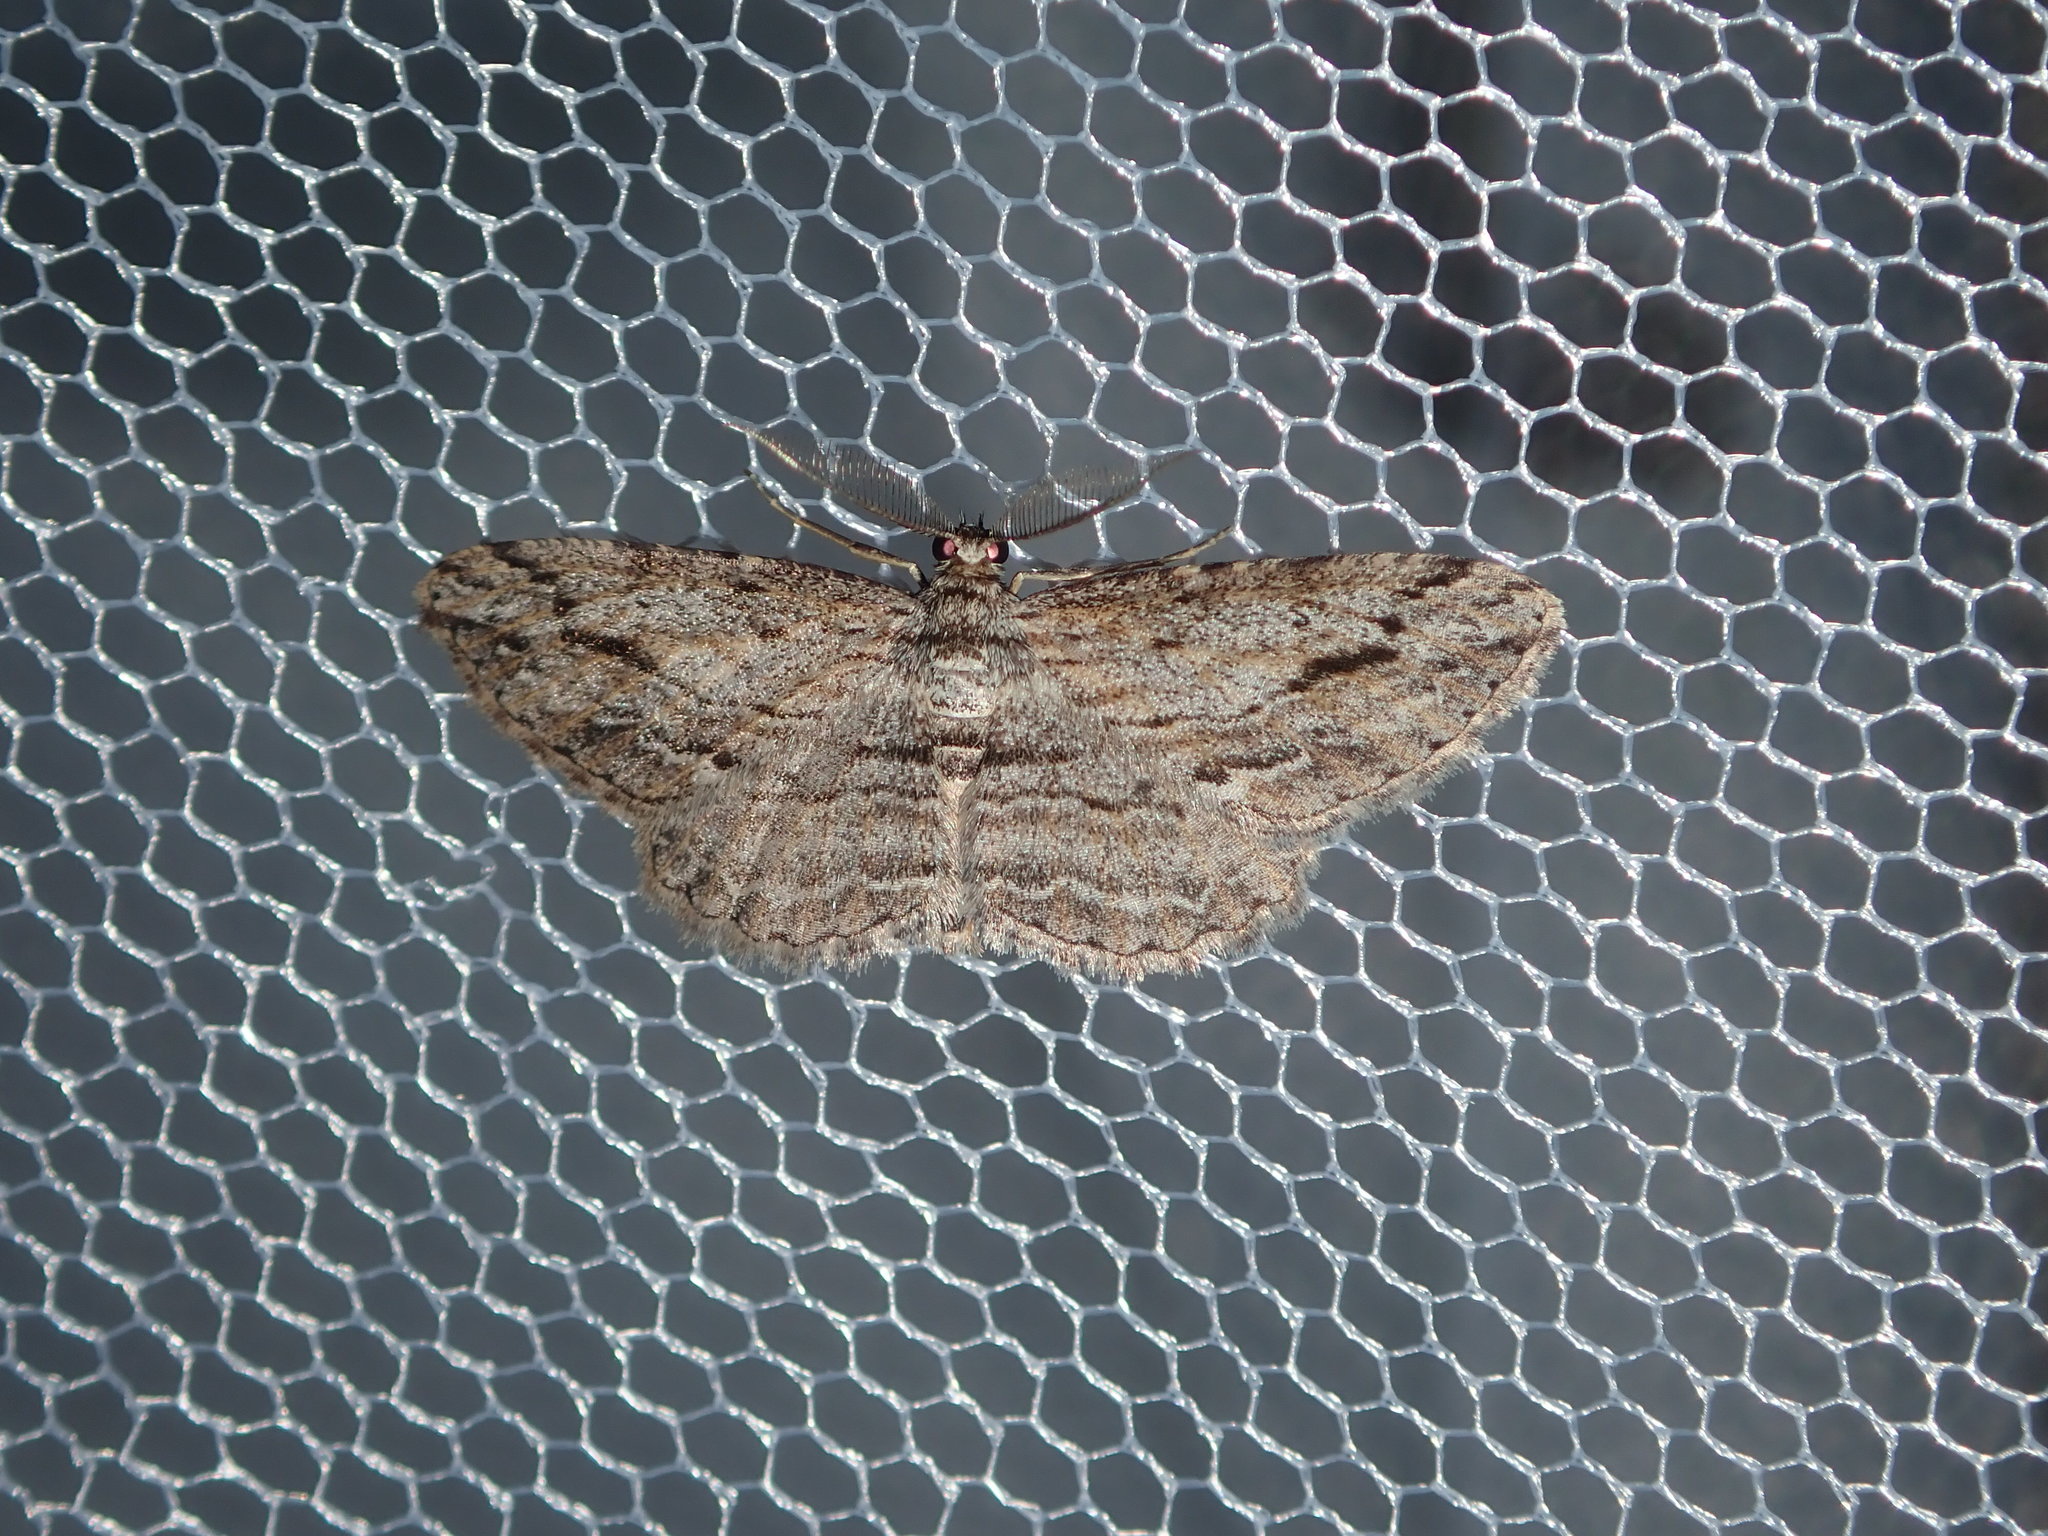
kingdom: Animalia
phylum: Arthropoda
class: Insecta
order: Lepidoptera
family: Geometridae
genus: Syneora
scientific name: Syneora acrotypa
